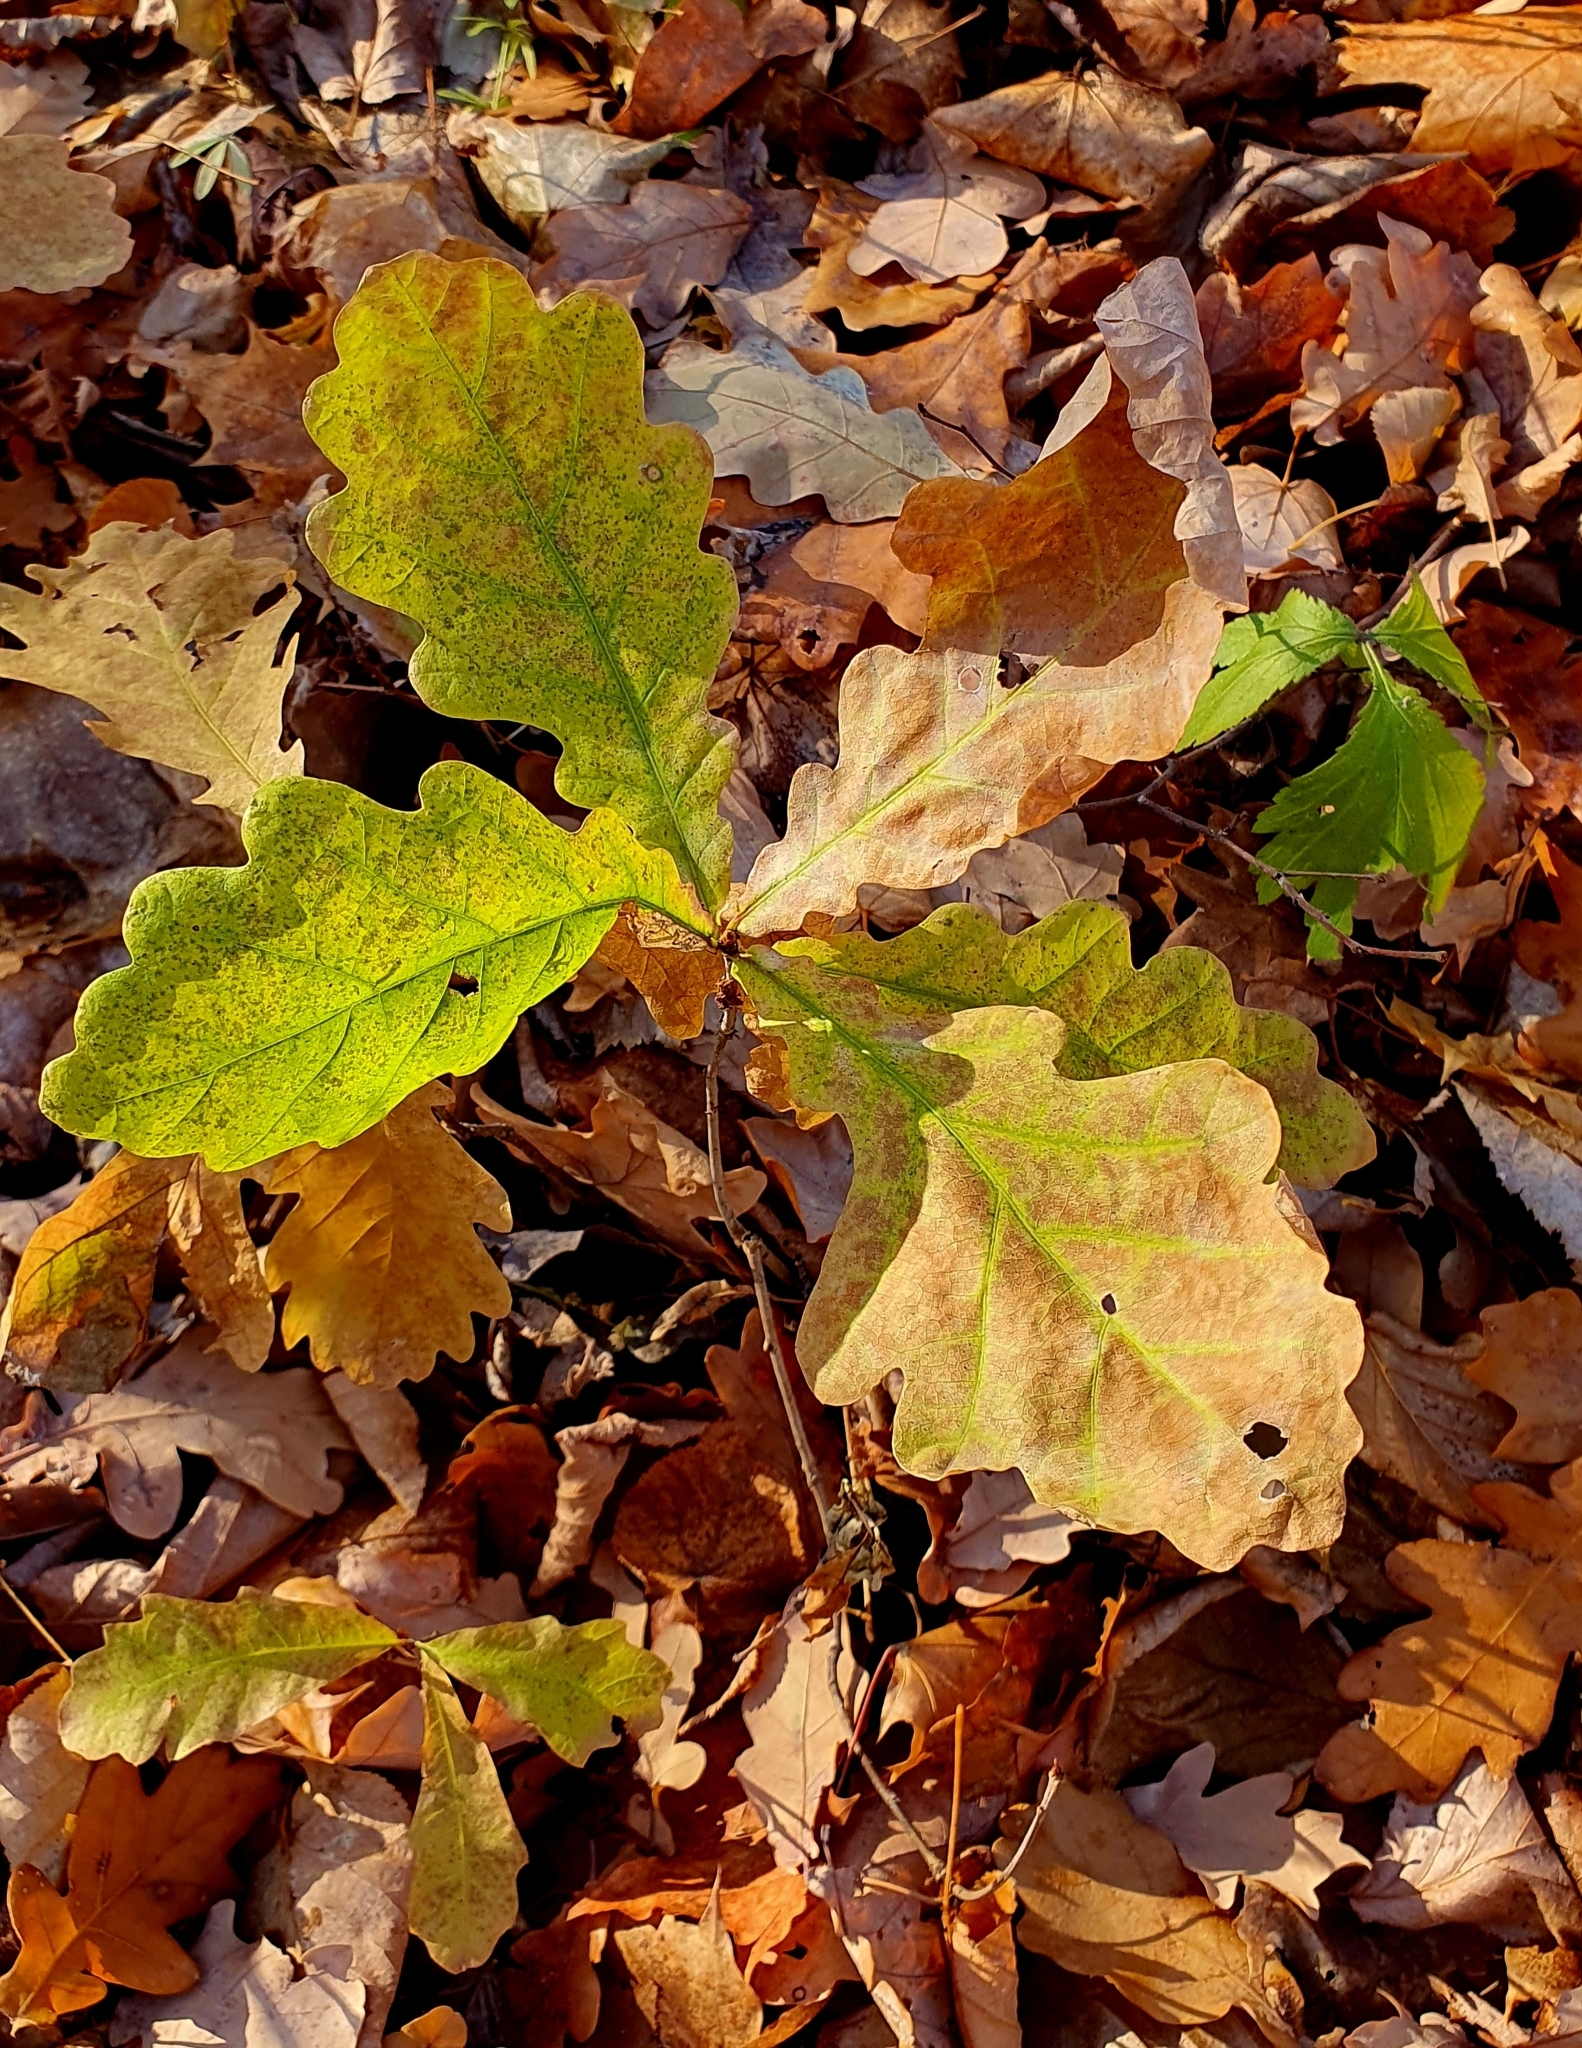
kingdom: Plantae
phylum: Tracheophyta
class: Magnoliopsida
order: Fagales
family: Fagaceae
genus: Quercus
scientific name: Quercus robur
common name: Pedunculate oak
